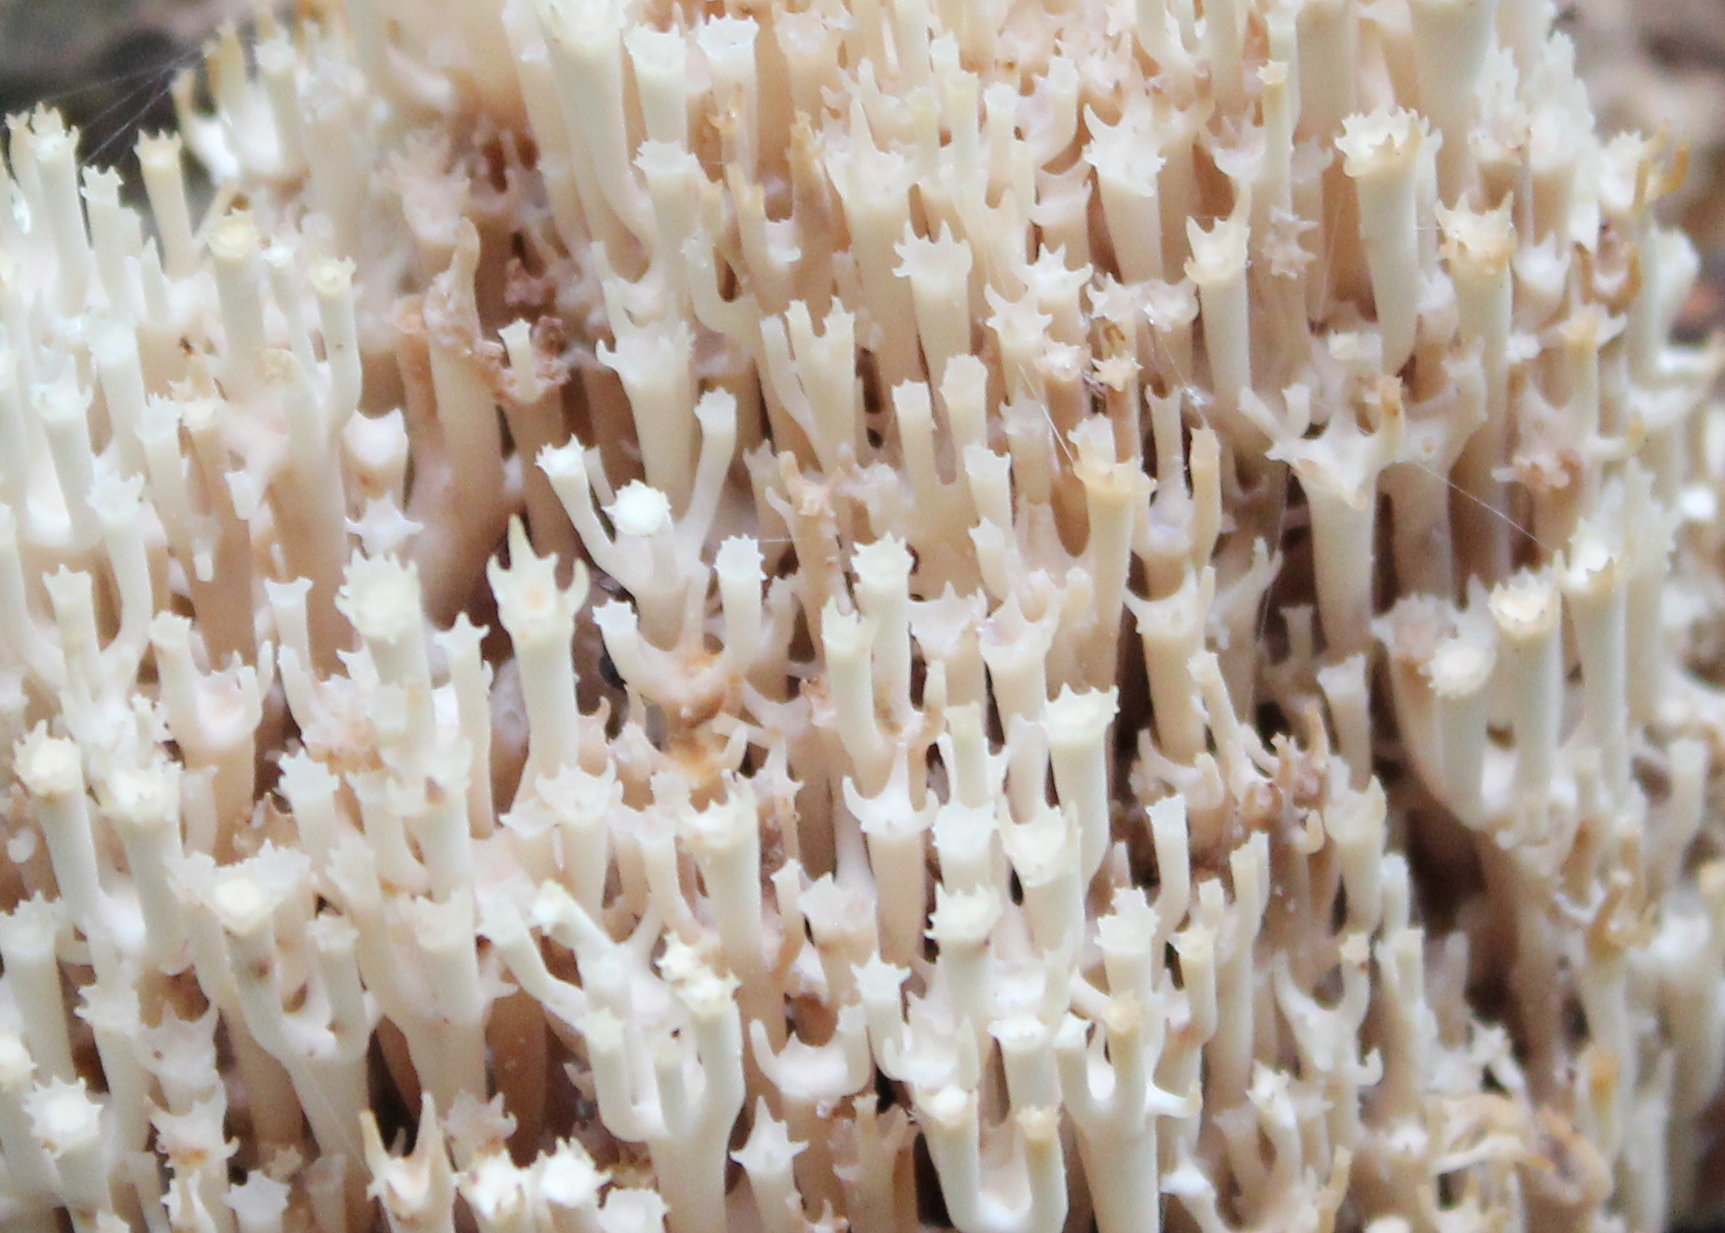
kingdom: Fungi
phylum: Basidiomycota
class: Agaricomycetes
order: Russulales
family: Auriscalpiaceae
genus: Artomyces
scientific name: Artomyces pyxidatus
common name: Crown-tipped coral fungus
